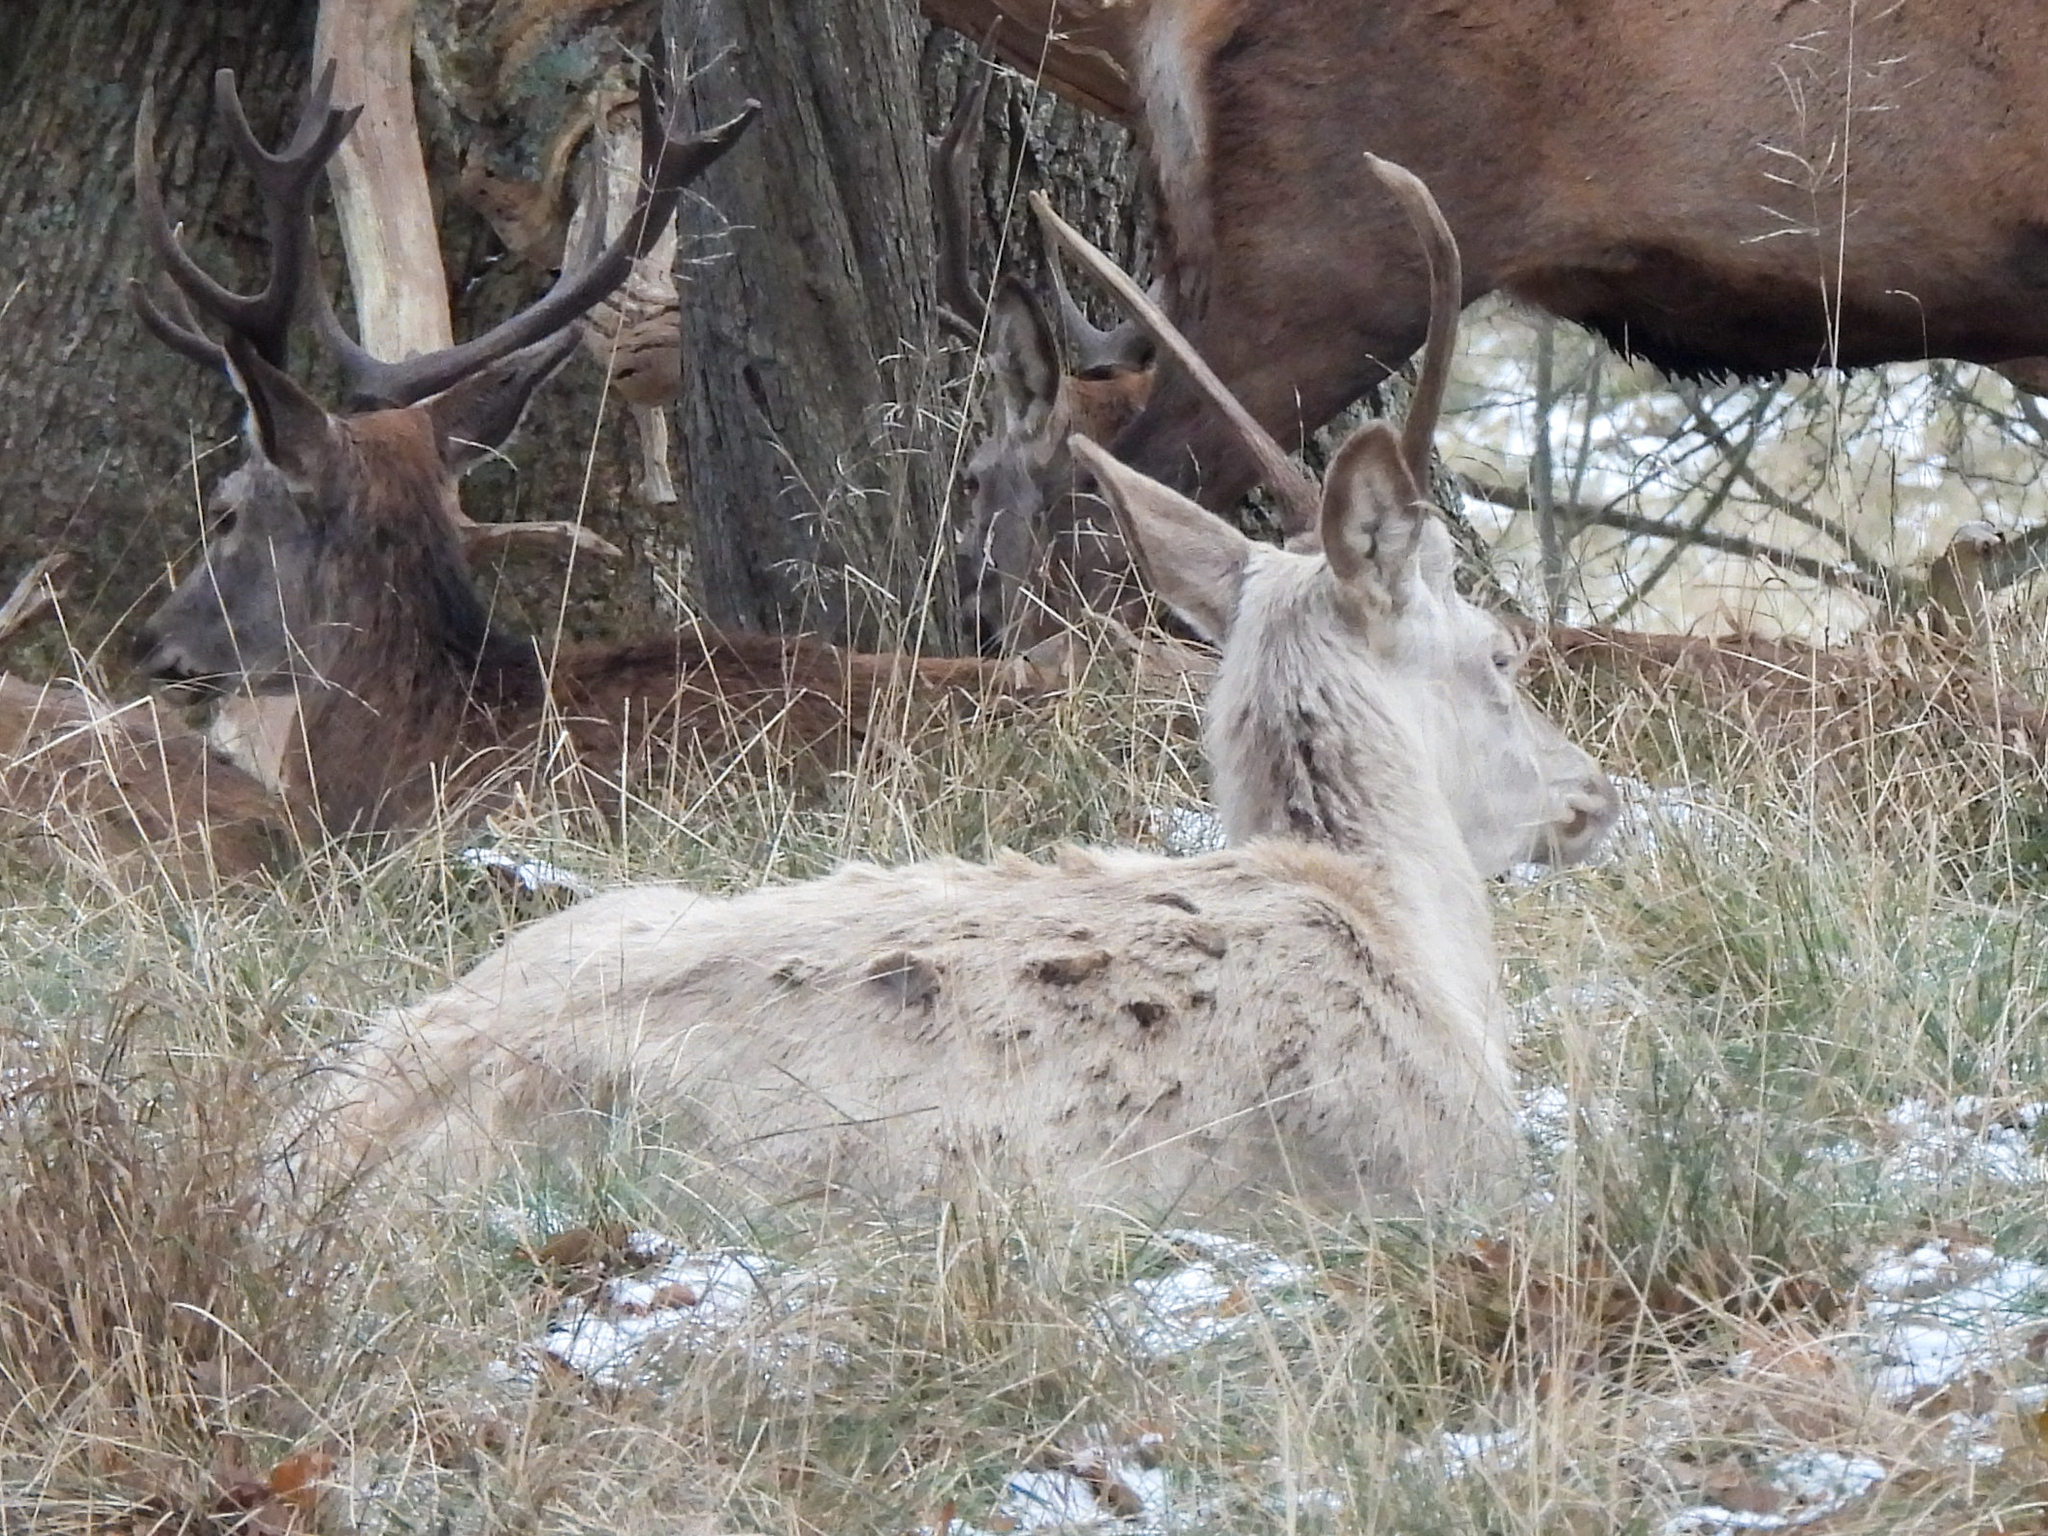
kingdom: Animalia
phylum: Chordata
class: Mammalia
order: Artiodactyla
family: Cervidae
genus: Cervus
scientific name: Cervus elaphus
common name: Red deer
